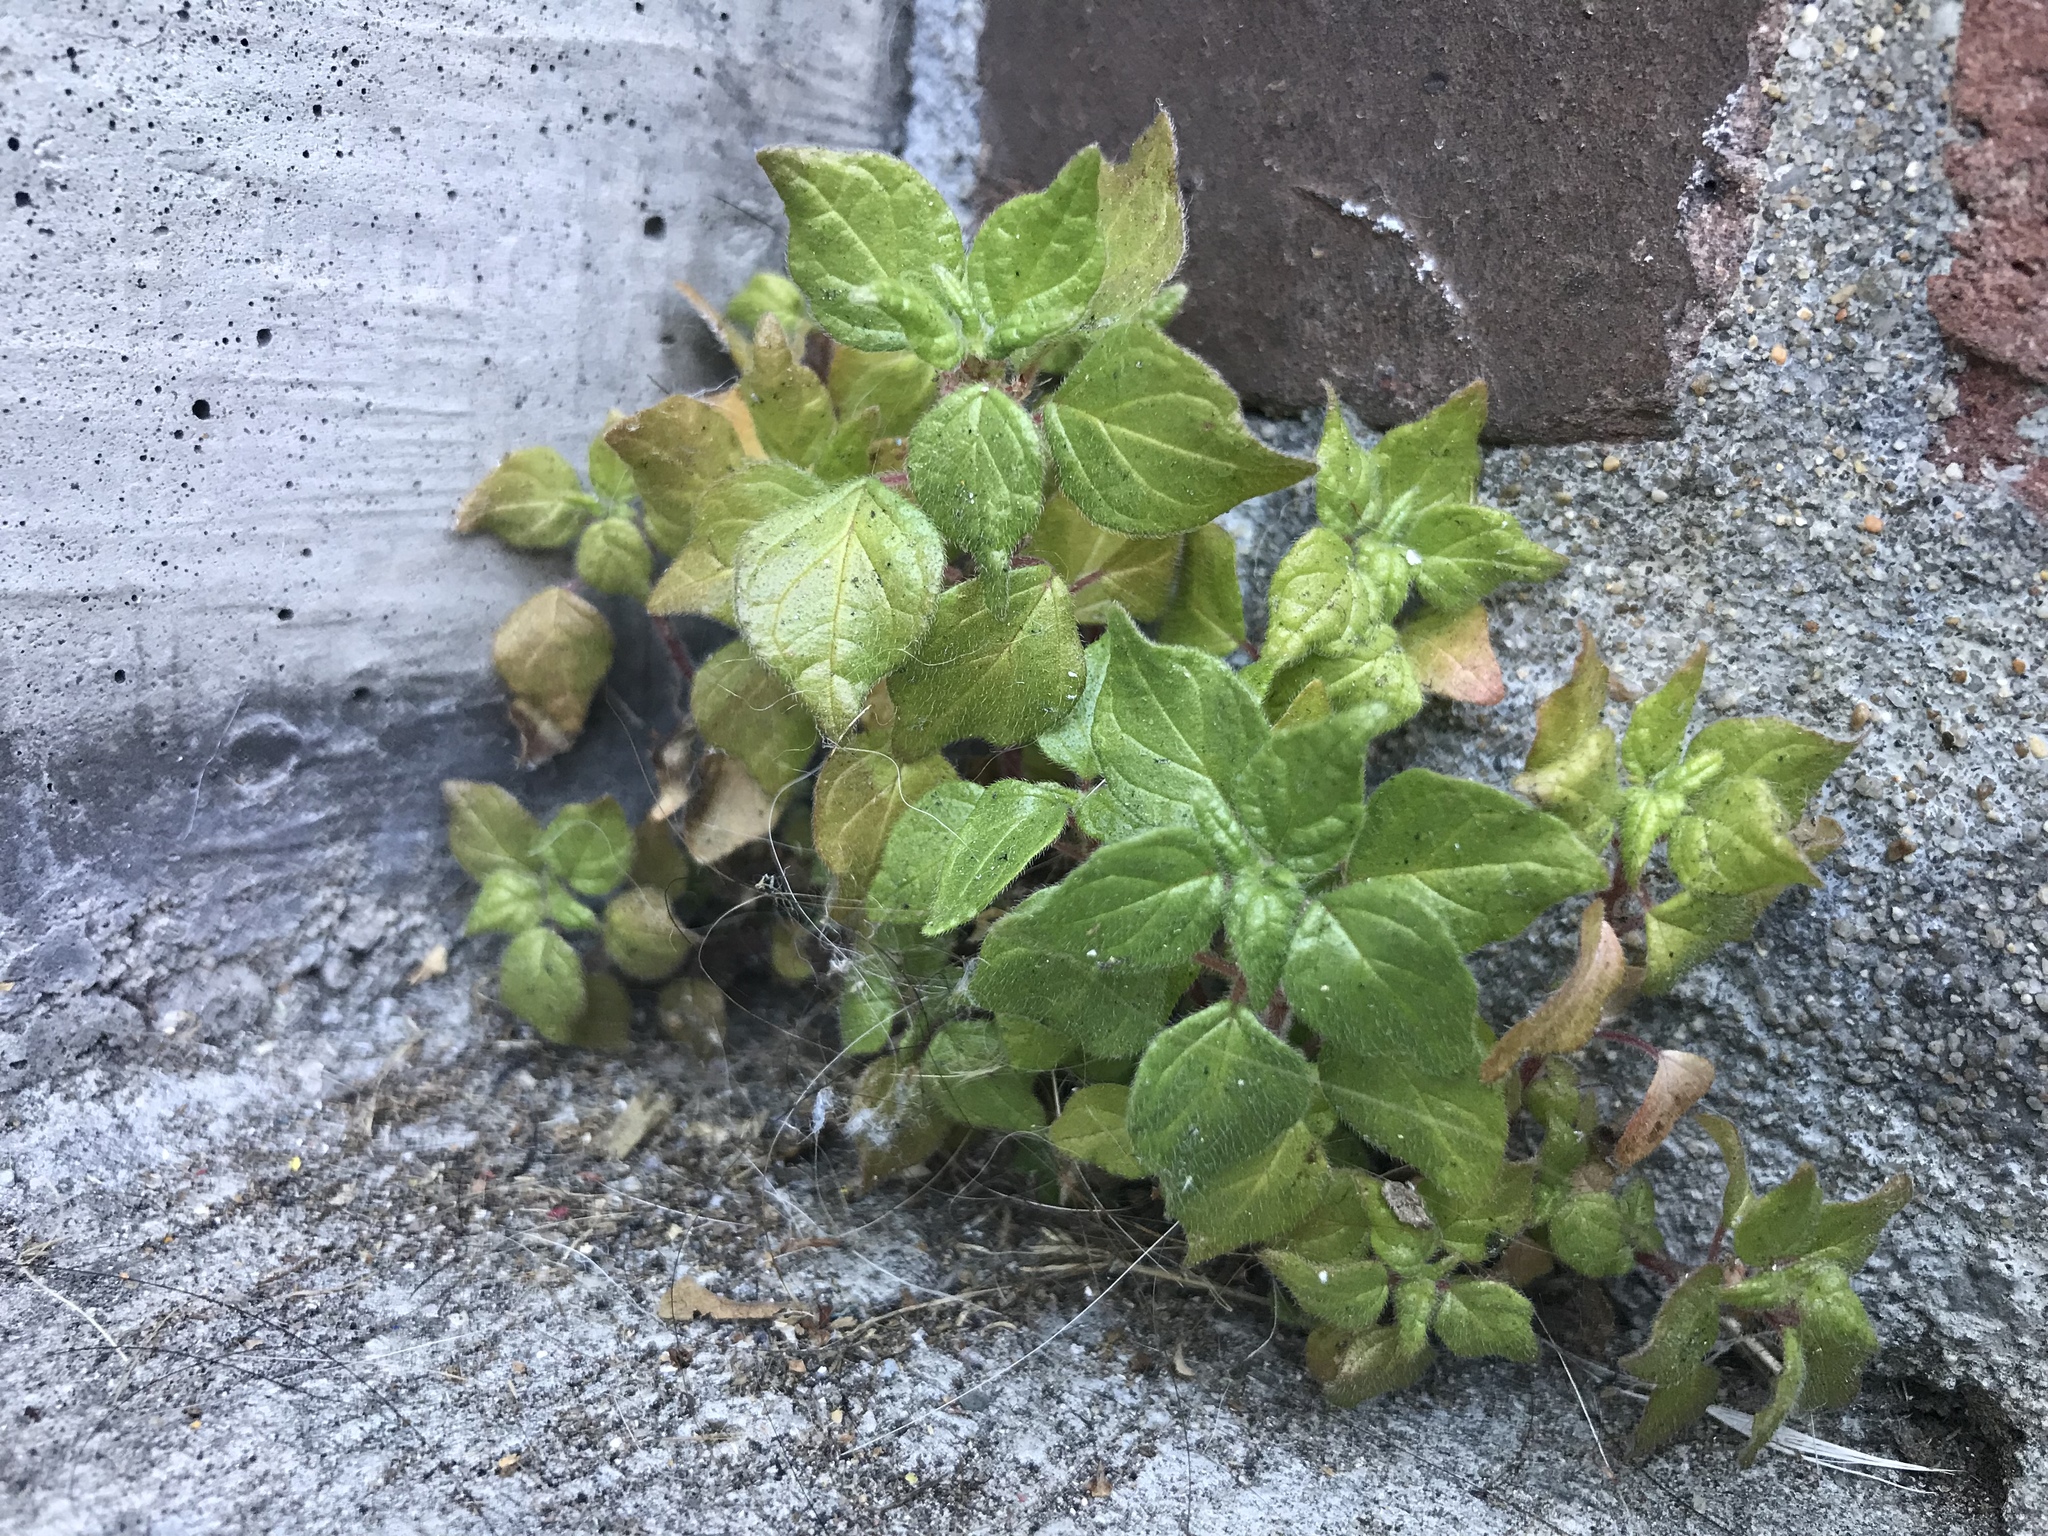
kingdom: Plantae
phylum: Tracheophyta
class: Magnoliopsida
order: Rosales
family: Urticaceae
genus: Parietaria
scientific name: Parietaria judaica
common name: Pellitory-of-the-wall
